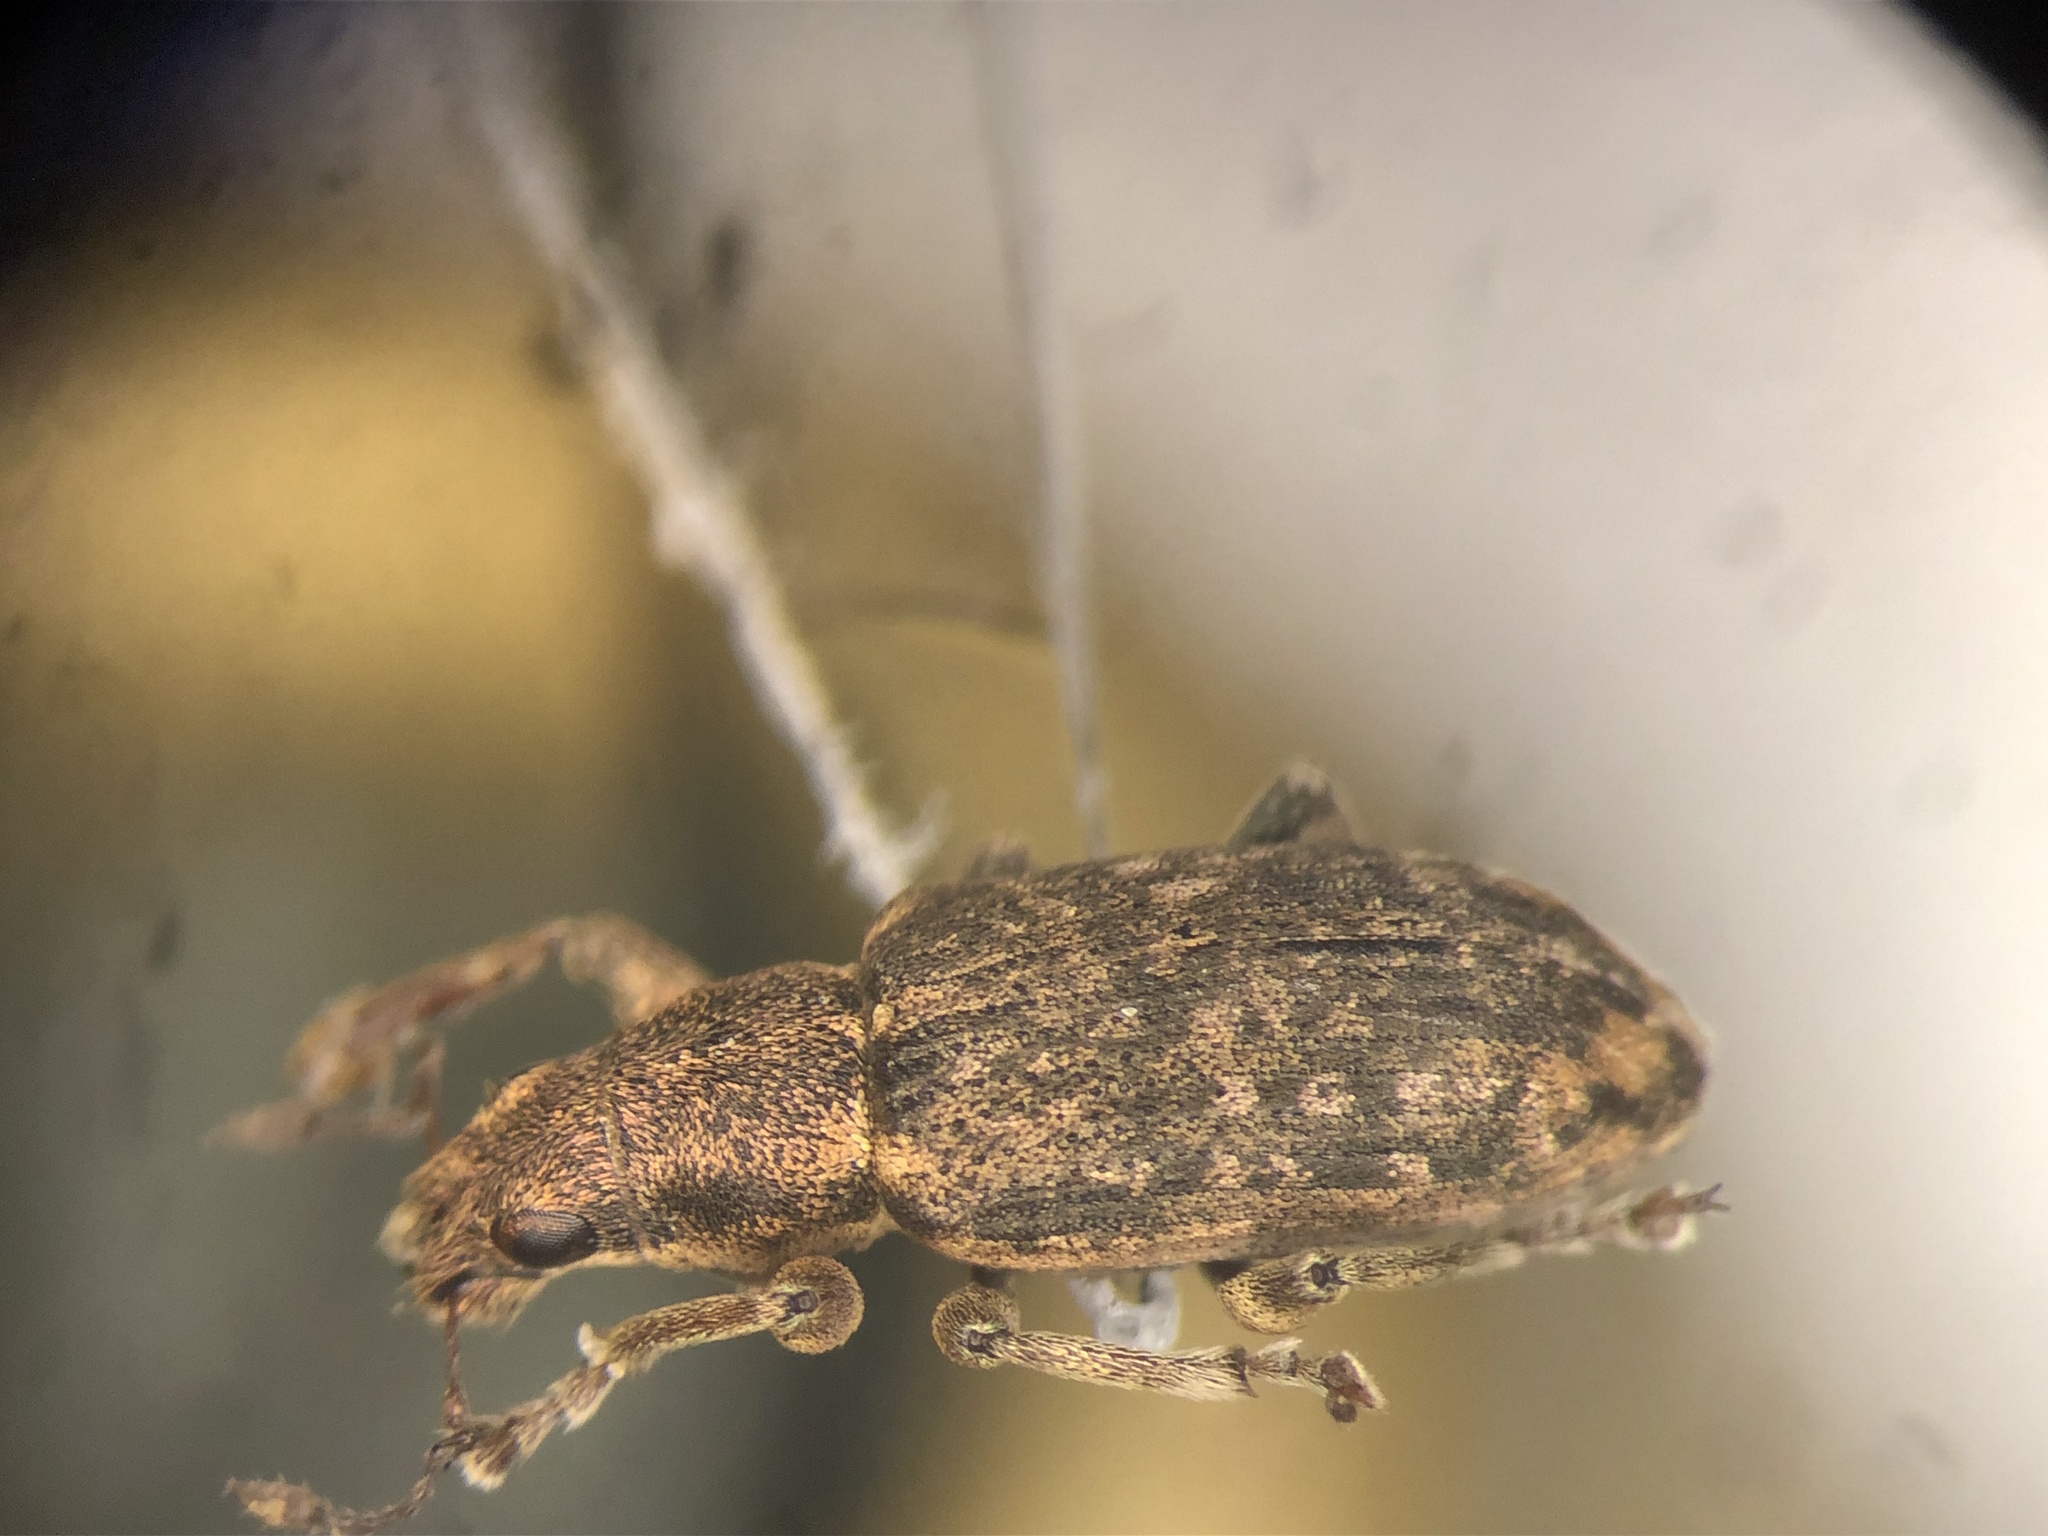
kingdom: Animalia
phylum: Arthropoda
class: Insecta
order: Coleoptera
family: Curculionidae
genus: Sitona
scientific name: Sitona cylindricollis
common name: Weevil
